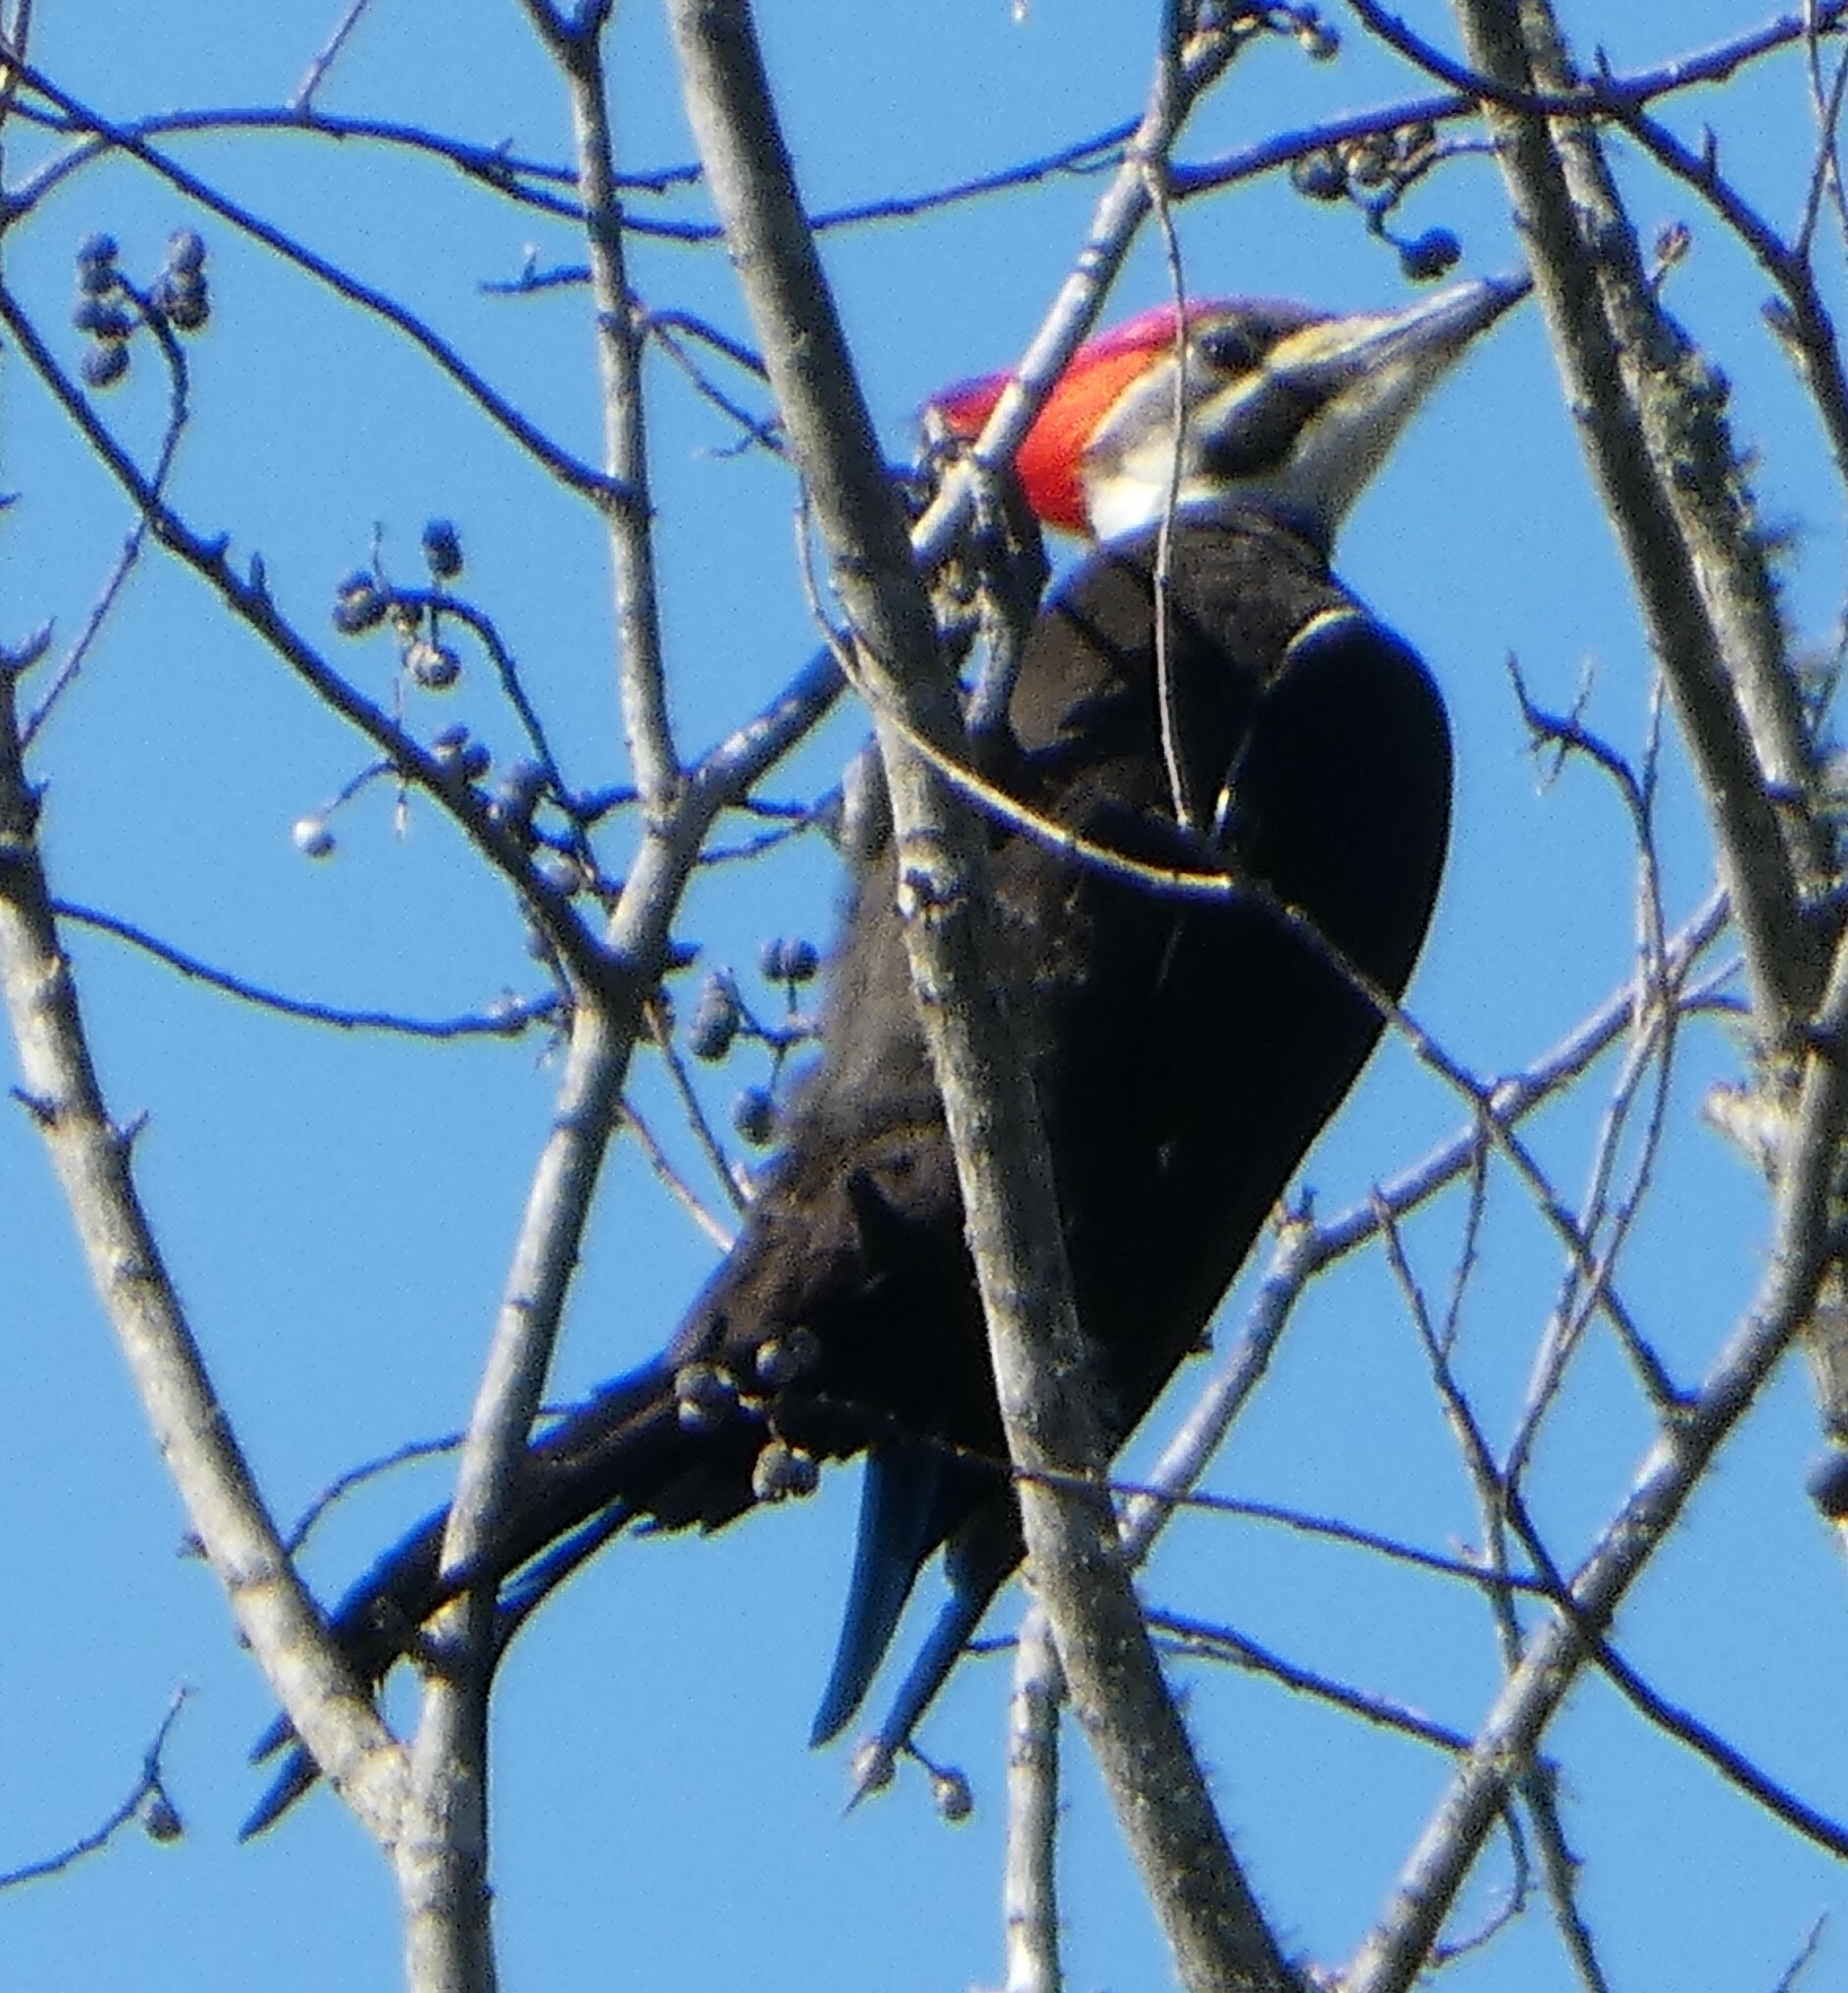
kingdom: Animalia
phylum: Chordata
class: Aves
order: Piciformes
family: Picidae
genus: Dryocopus
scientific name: Dryocopus pileatus
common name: Pileated woodpecker
